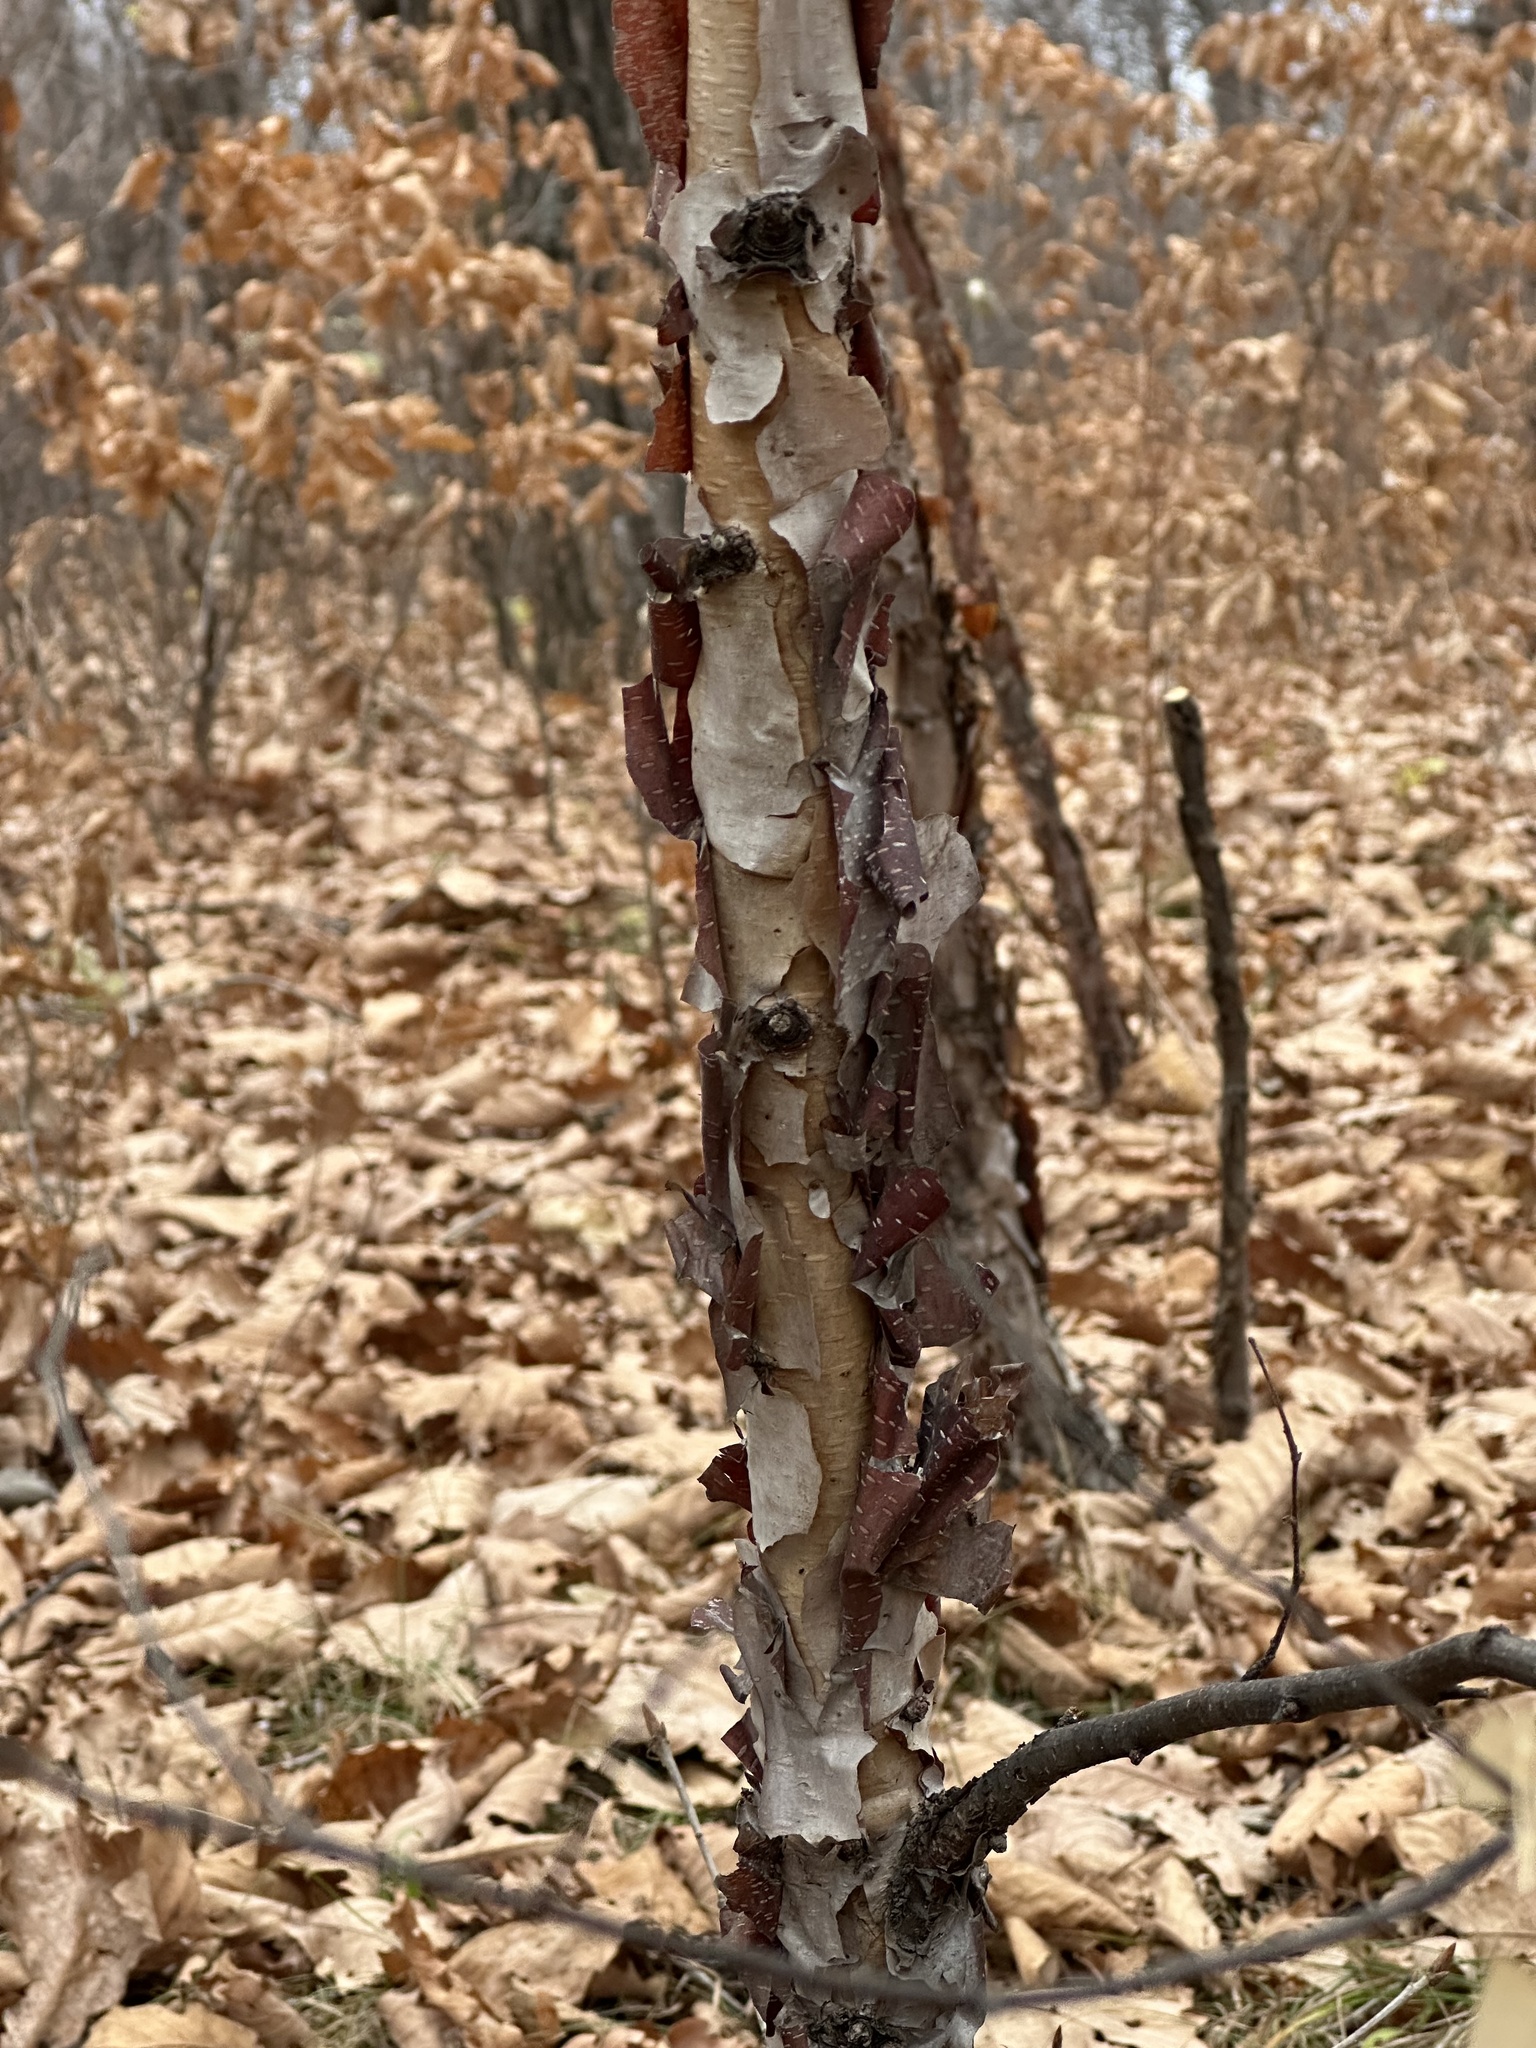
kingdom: Plantae
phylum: Tracheophyta
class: Magnoliopsida
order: Fagales
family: Betulaceae
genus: Betula
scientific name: Betula dauurica
